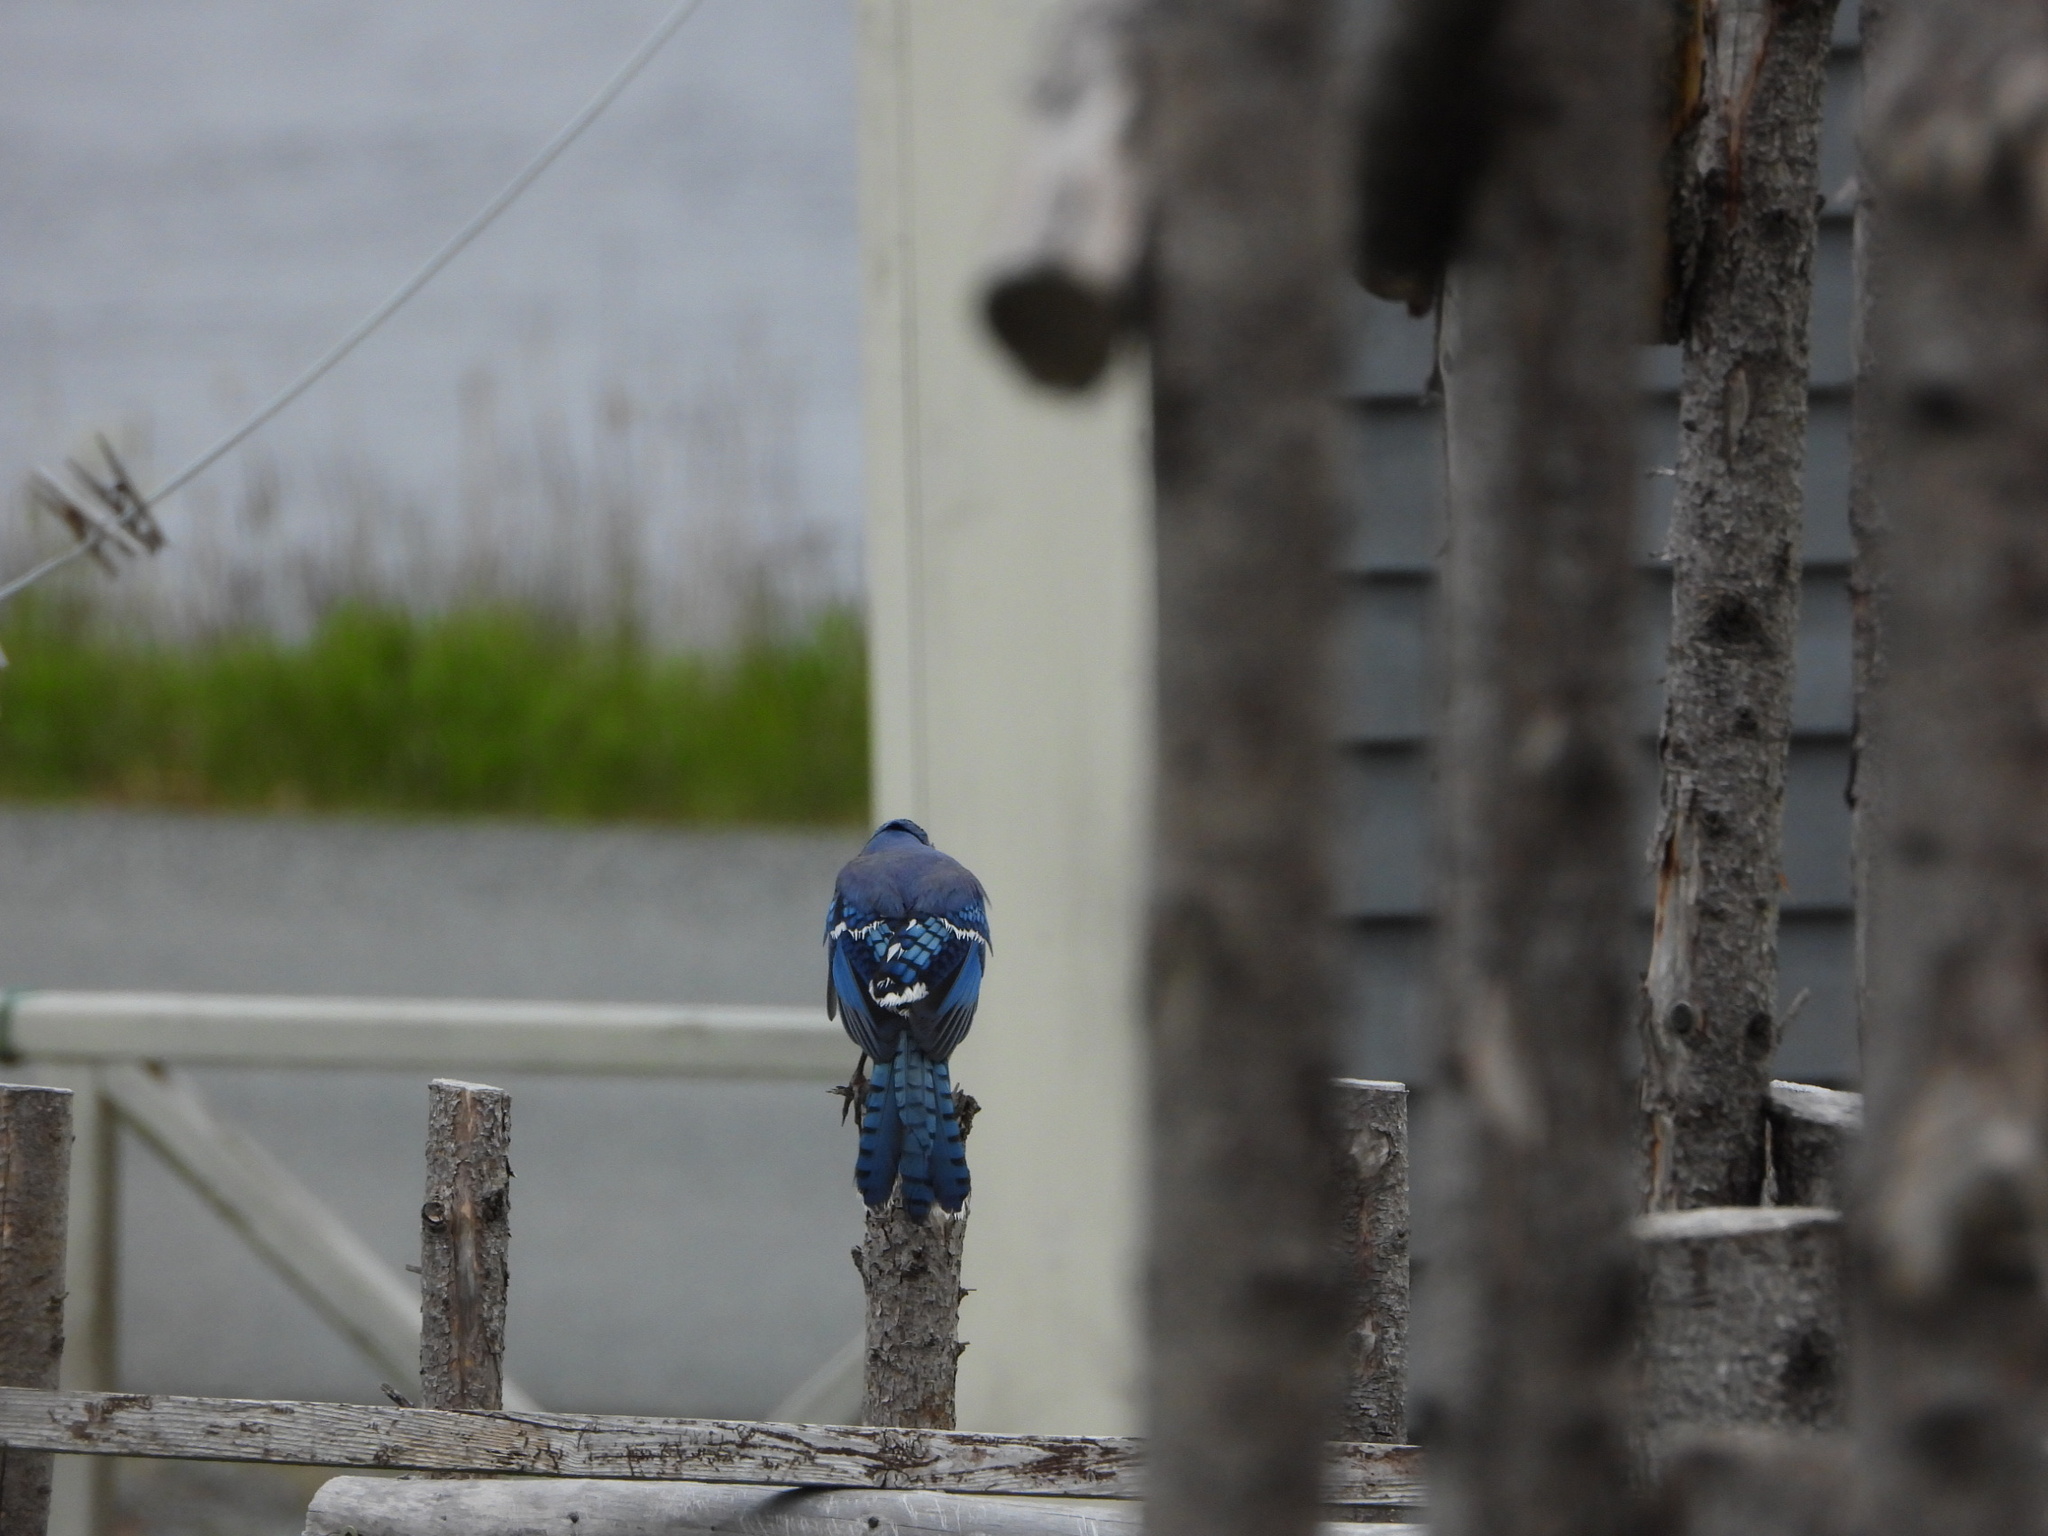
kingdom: Animalia
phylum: Chordata
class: Aves
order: Passeriformes
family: Corvidae
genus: Cyanocitta
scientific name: Cyanocitta cristata
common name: Blue jay
